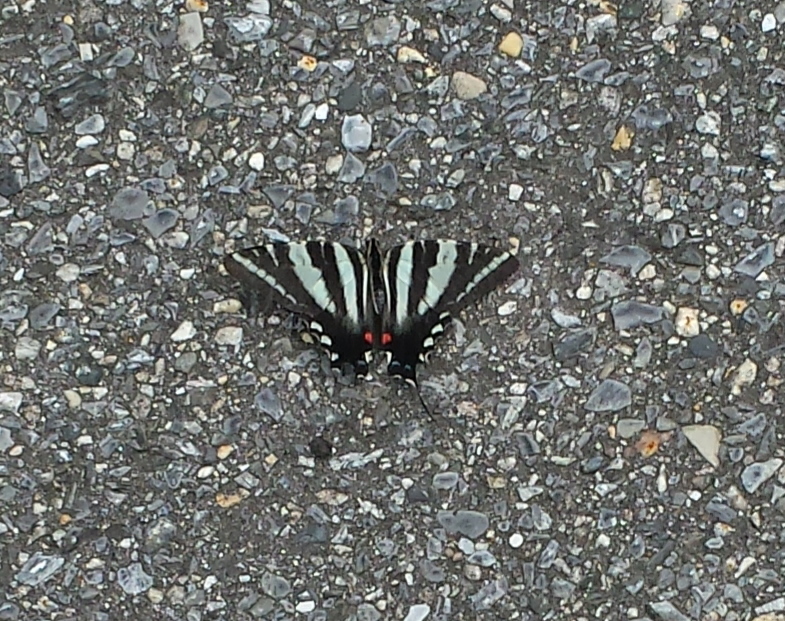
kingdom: Animalia
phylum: Arthropoda
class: Insecta
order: Lepidoptera
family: Papilionidae
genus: Protographium
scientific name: Protographium marcellus
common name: Zebra swallowtail
